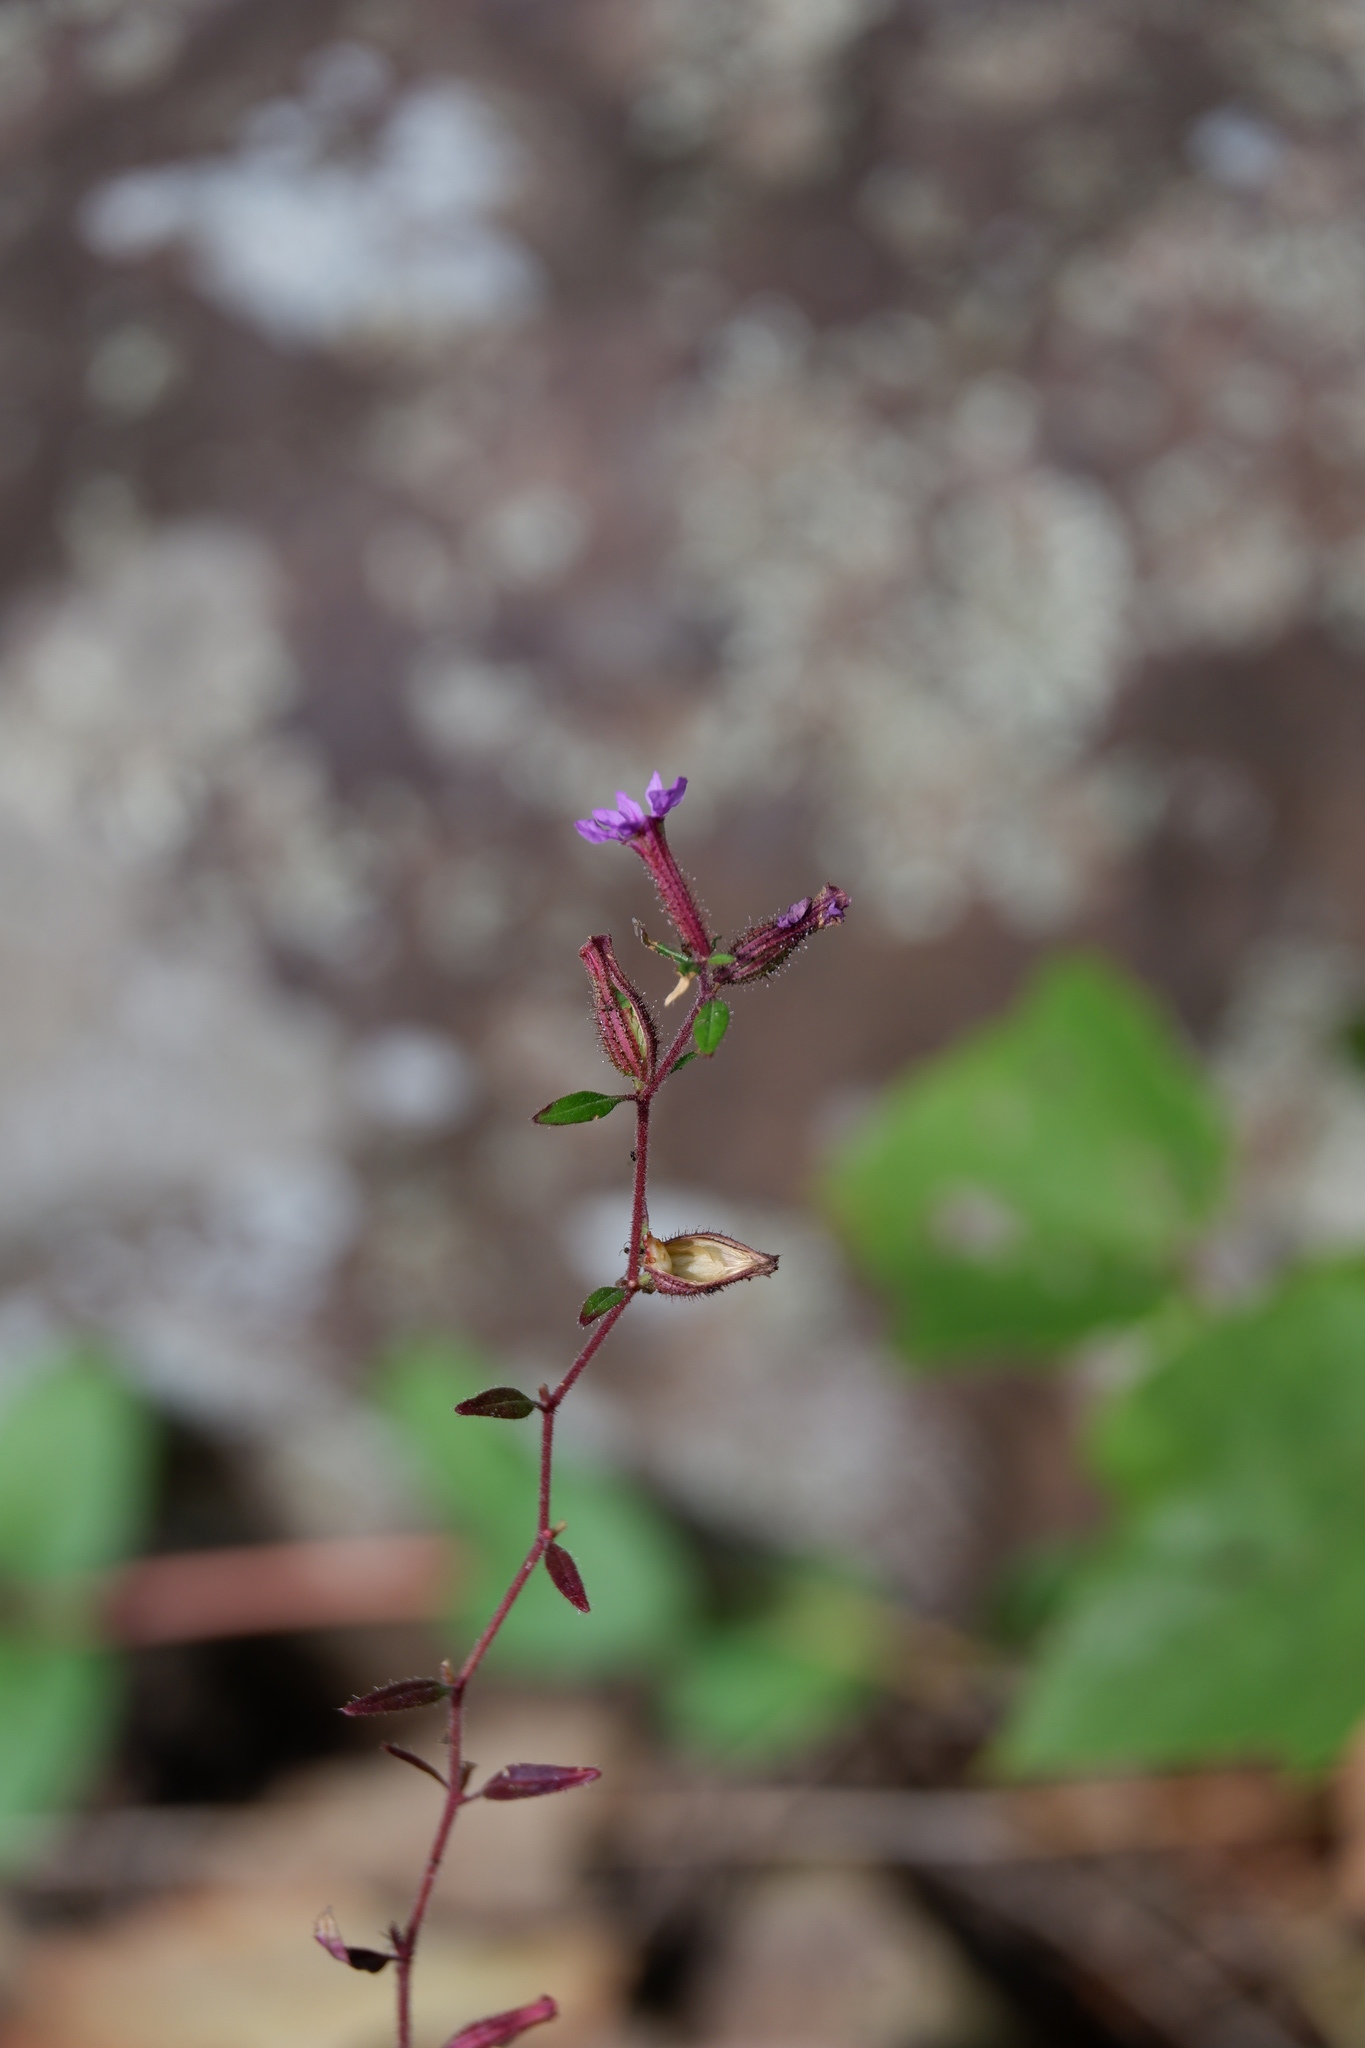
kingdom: Plantae
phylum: Tracheophyta
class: Magnoliopsida
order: Myrtales
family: Lythraceae
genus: Cuphea
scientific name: Cuphea viscosissima
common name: Clammy cuphea
